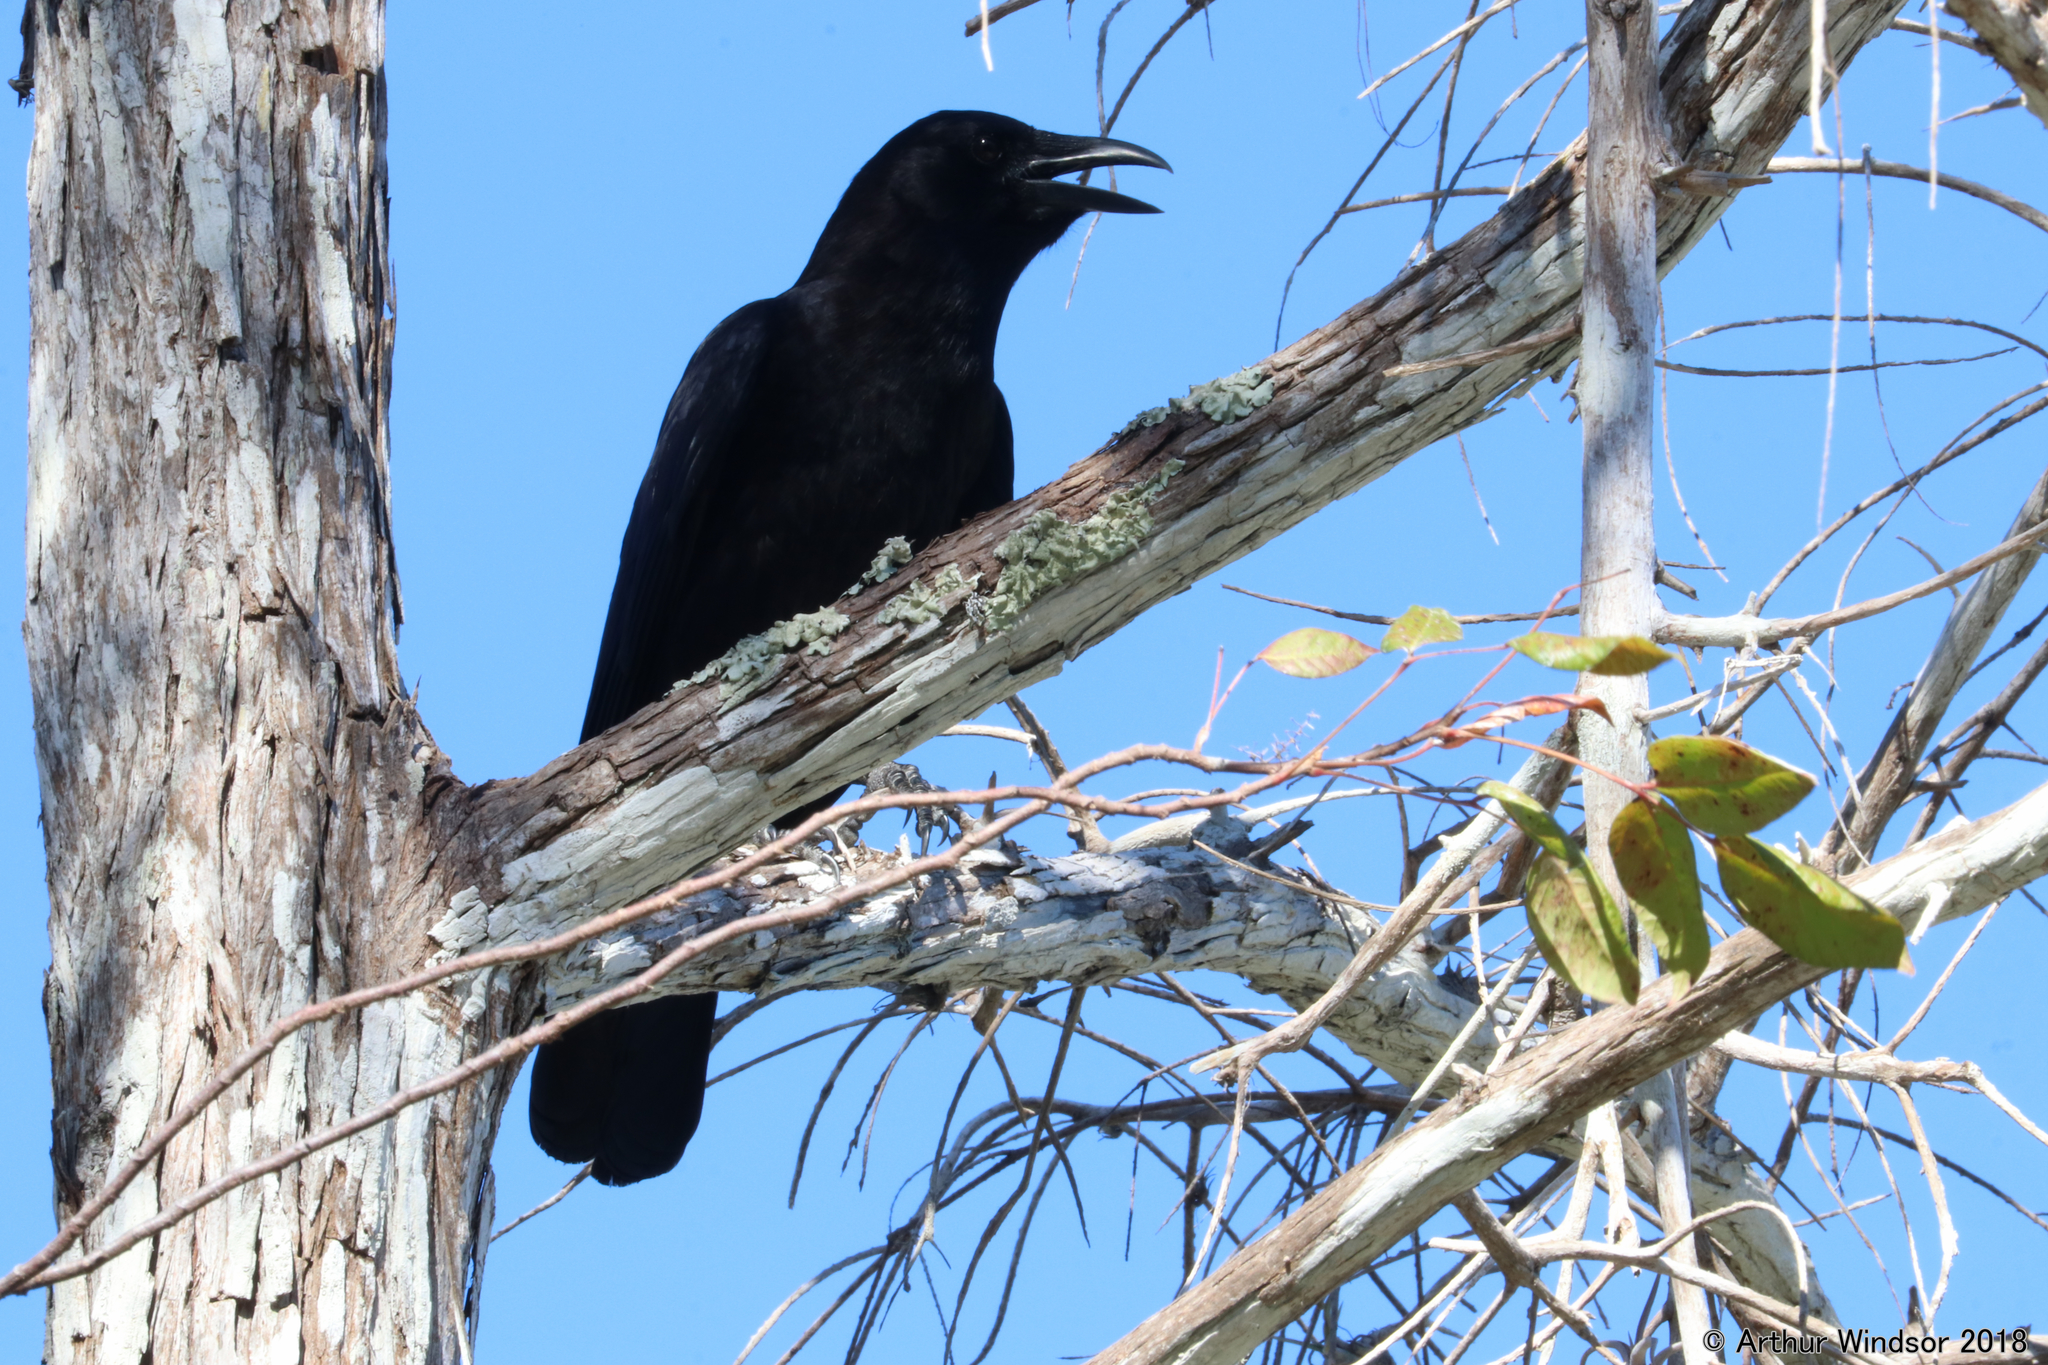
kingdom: Animalia
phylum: Chordata
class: Aves
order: Passeriformes
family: Corvidae
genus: Corvus
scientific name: Corvus brachyrhynchos
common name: American crow
